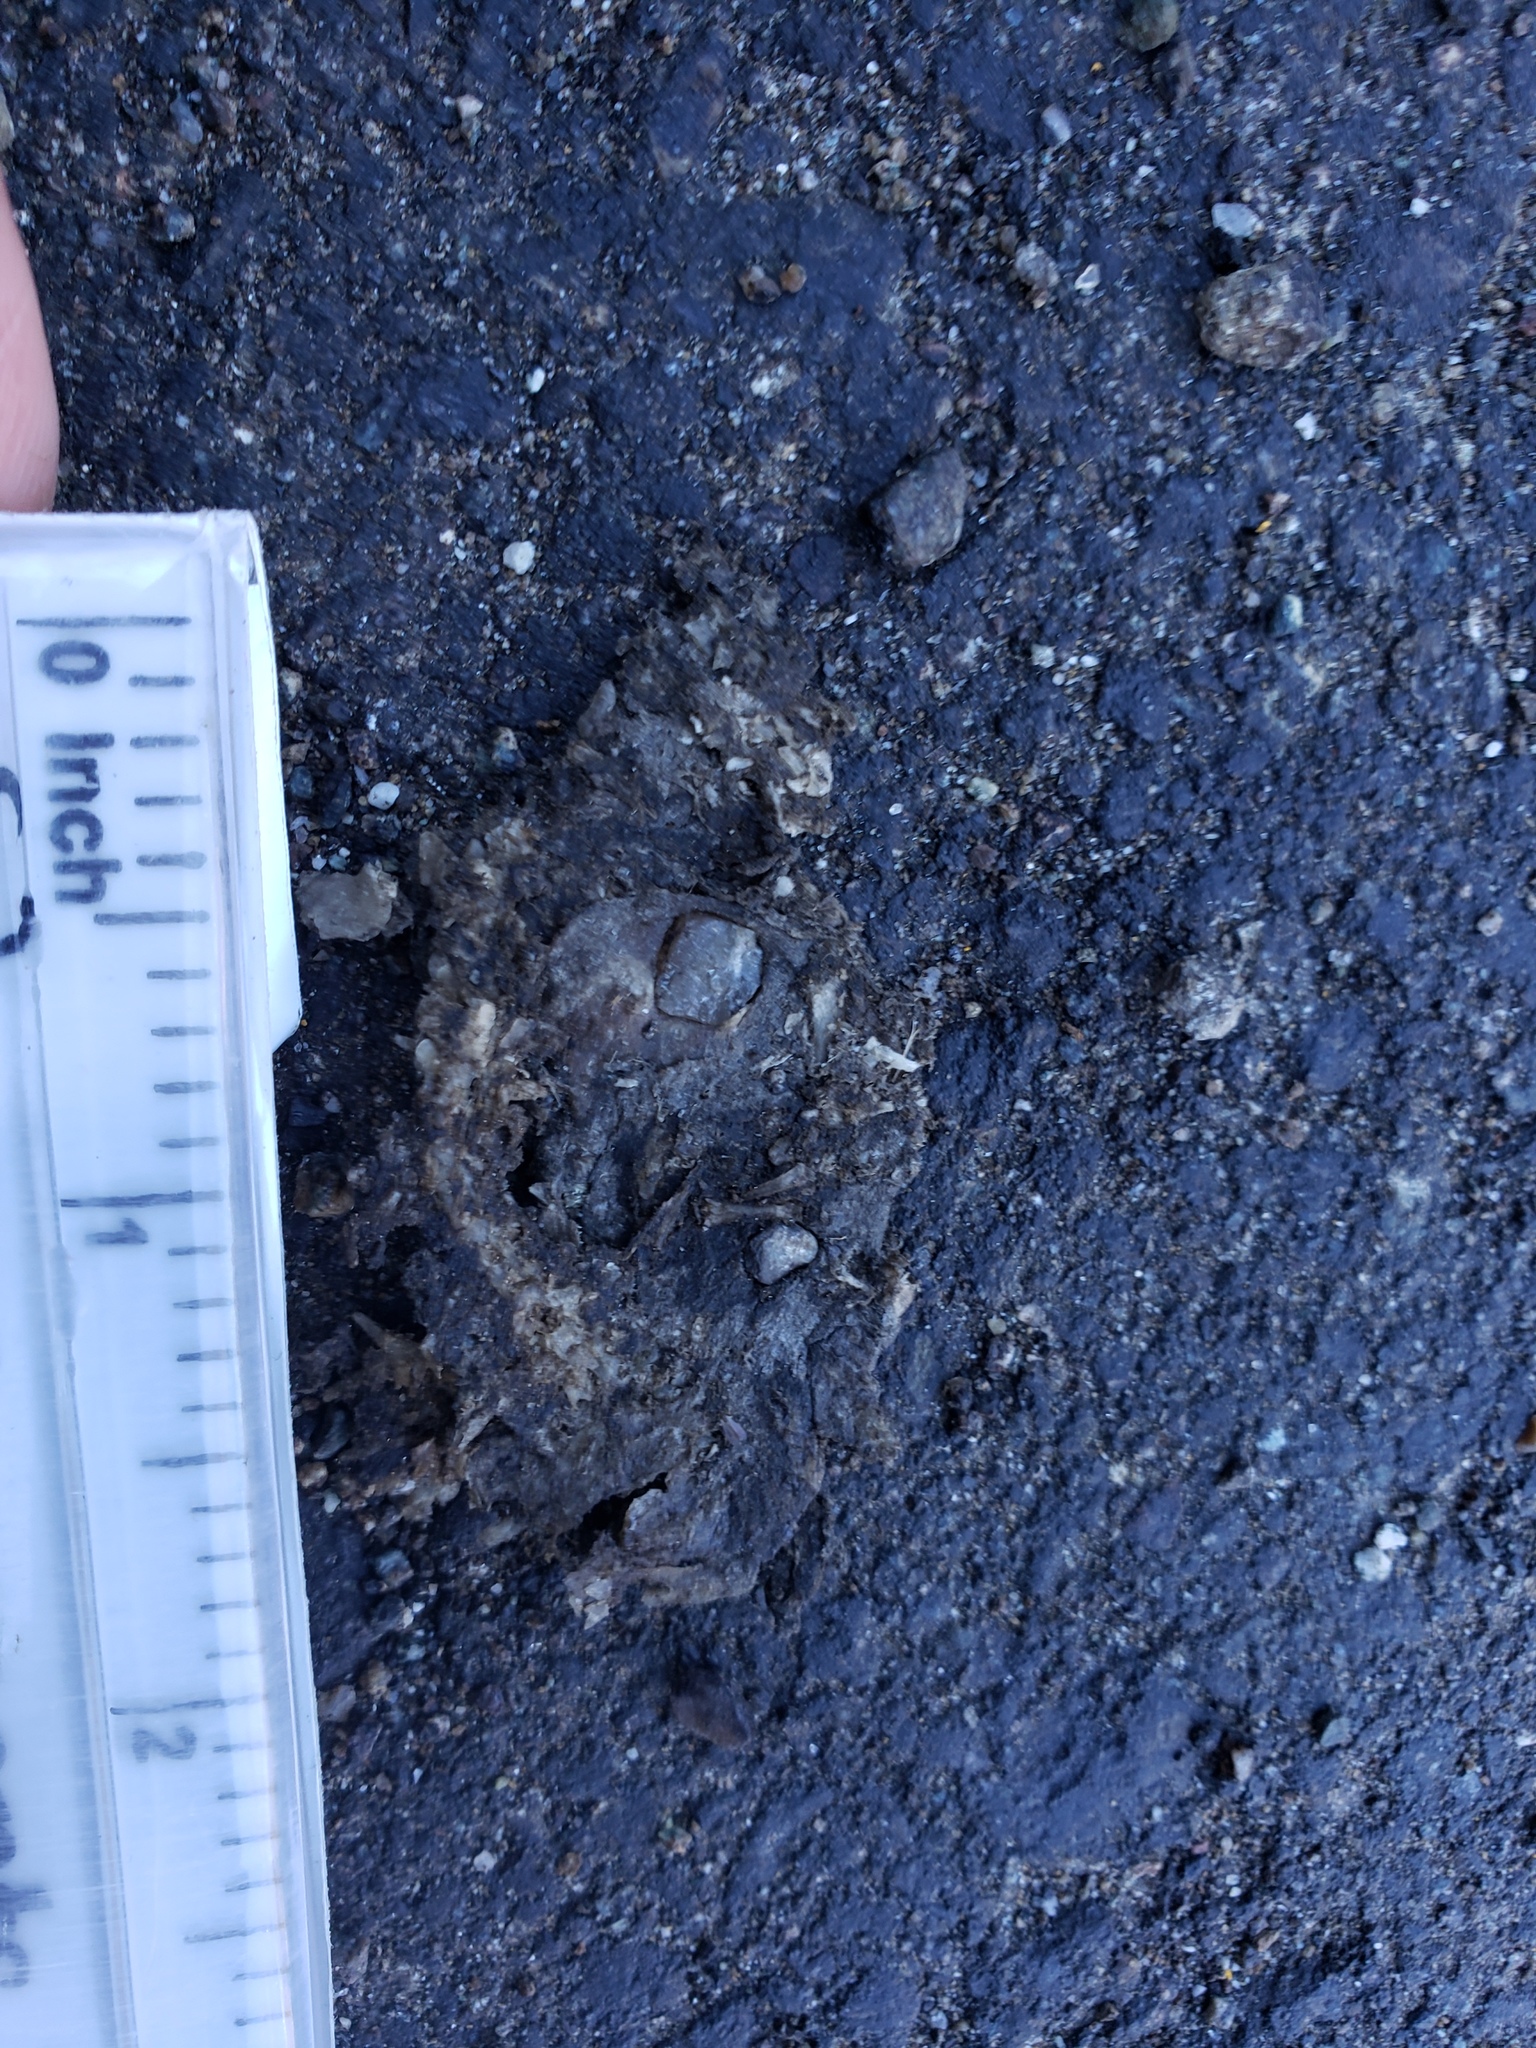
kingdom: Animalia
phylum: Chordata
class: Amphibia
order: Caudata
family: Salamandridae
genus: Taricha
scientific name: Taricha
